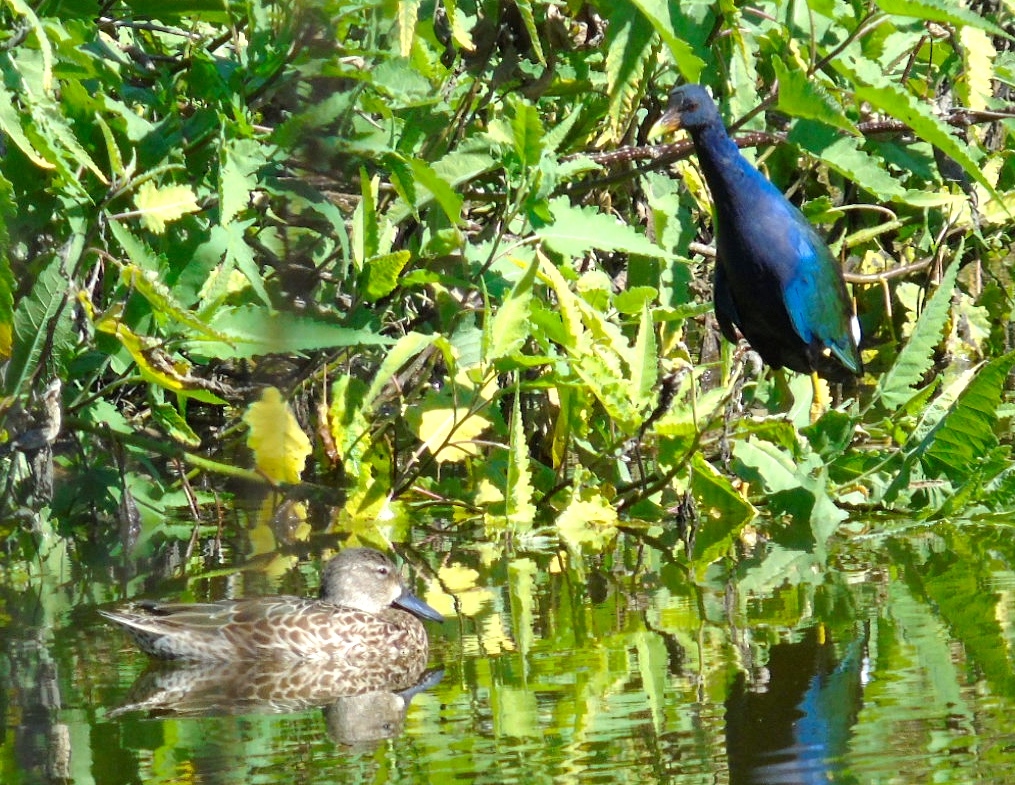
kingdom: Animalia
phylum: Chordata
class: Aves
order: Anseriformes
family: Anatidae
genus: Spatula
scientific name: Spatula discors
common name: Blue-winged teal
